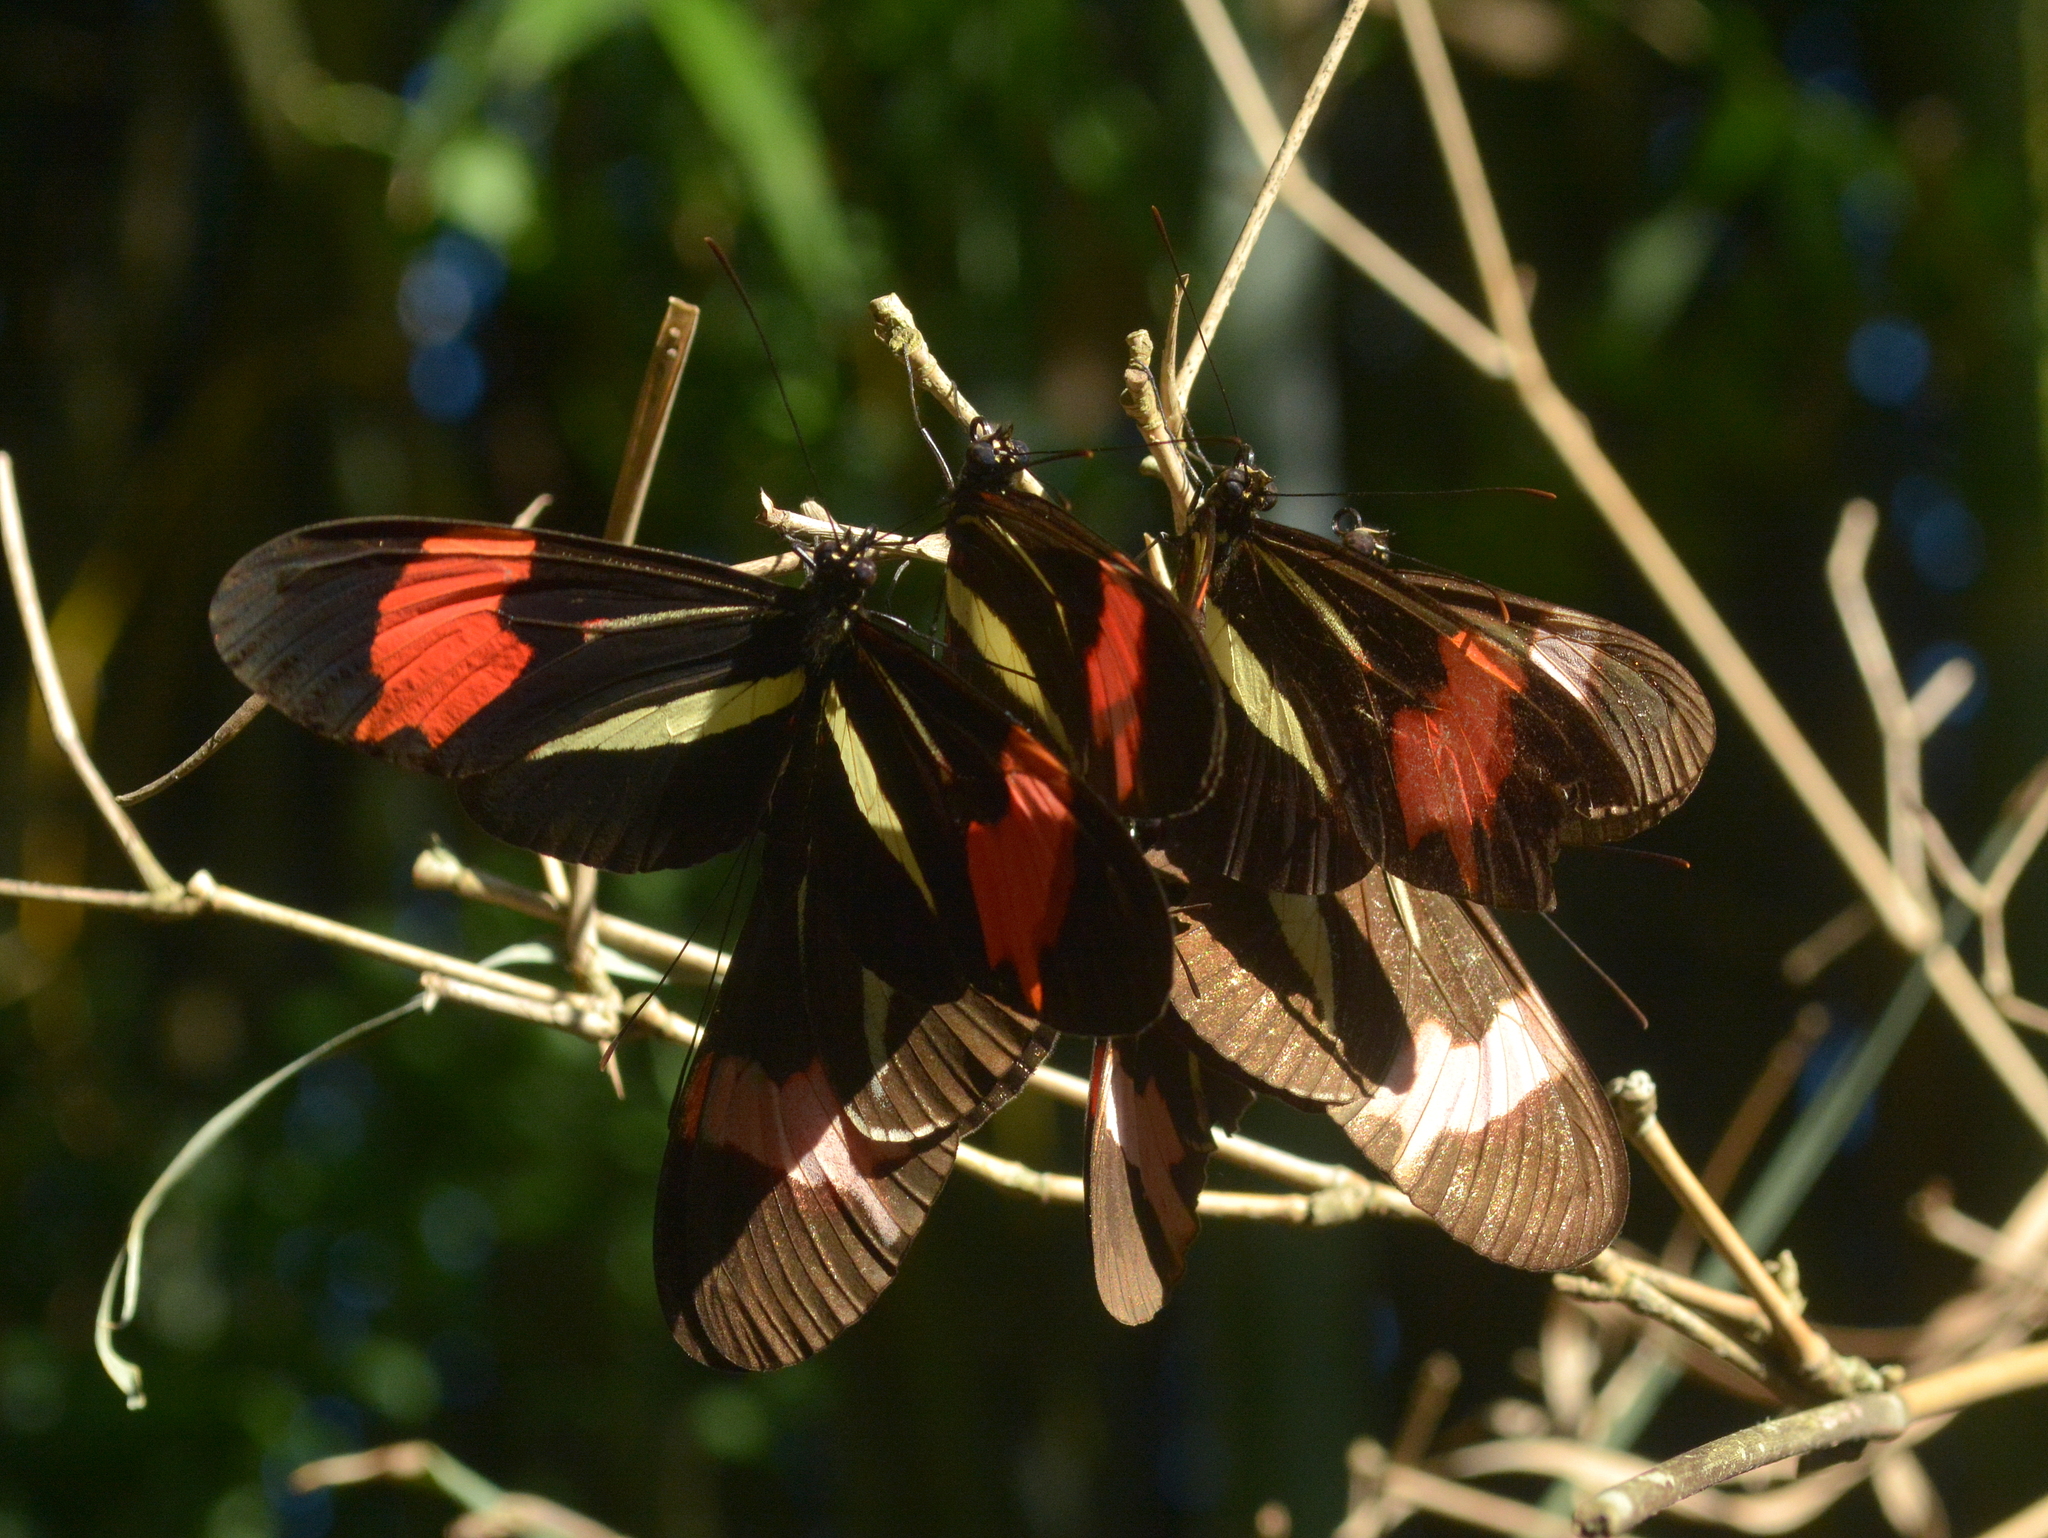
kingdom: Animalia
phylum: Arthropoda
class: Insecta
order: Lepidoptera
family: Nymphalidae
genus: Heliconius
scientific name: Heliconius erato
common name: Common patch longwing
